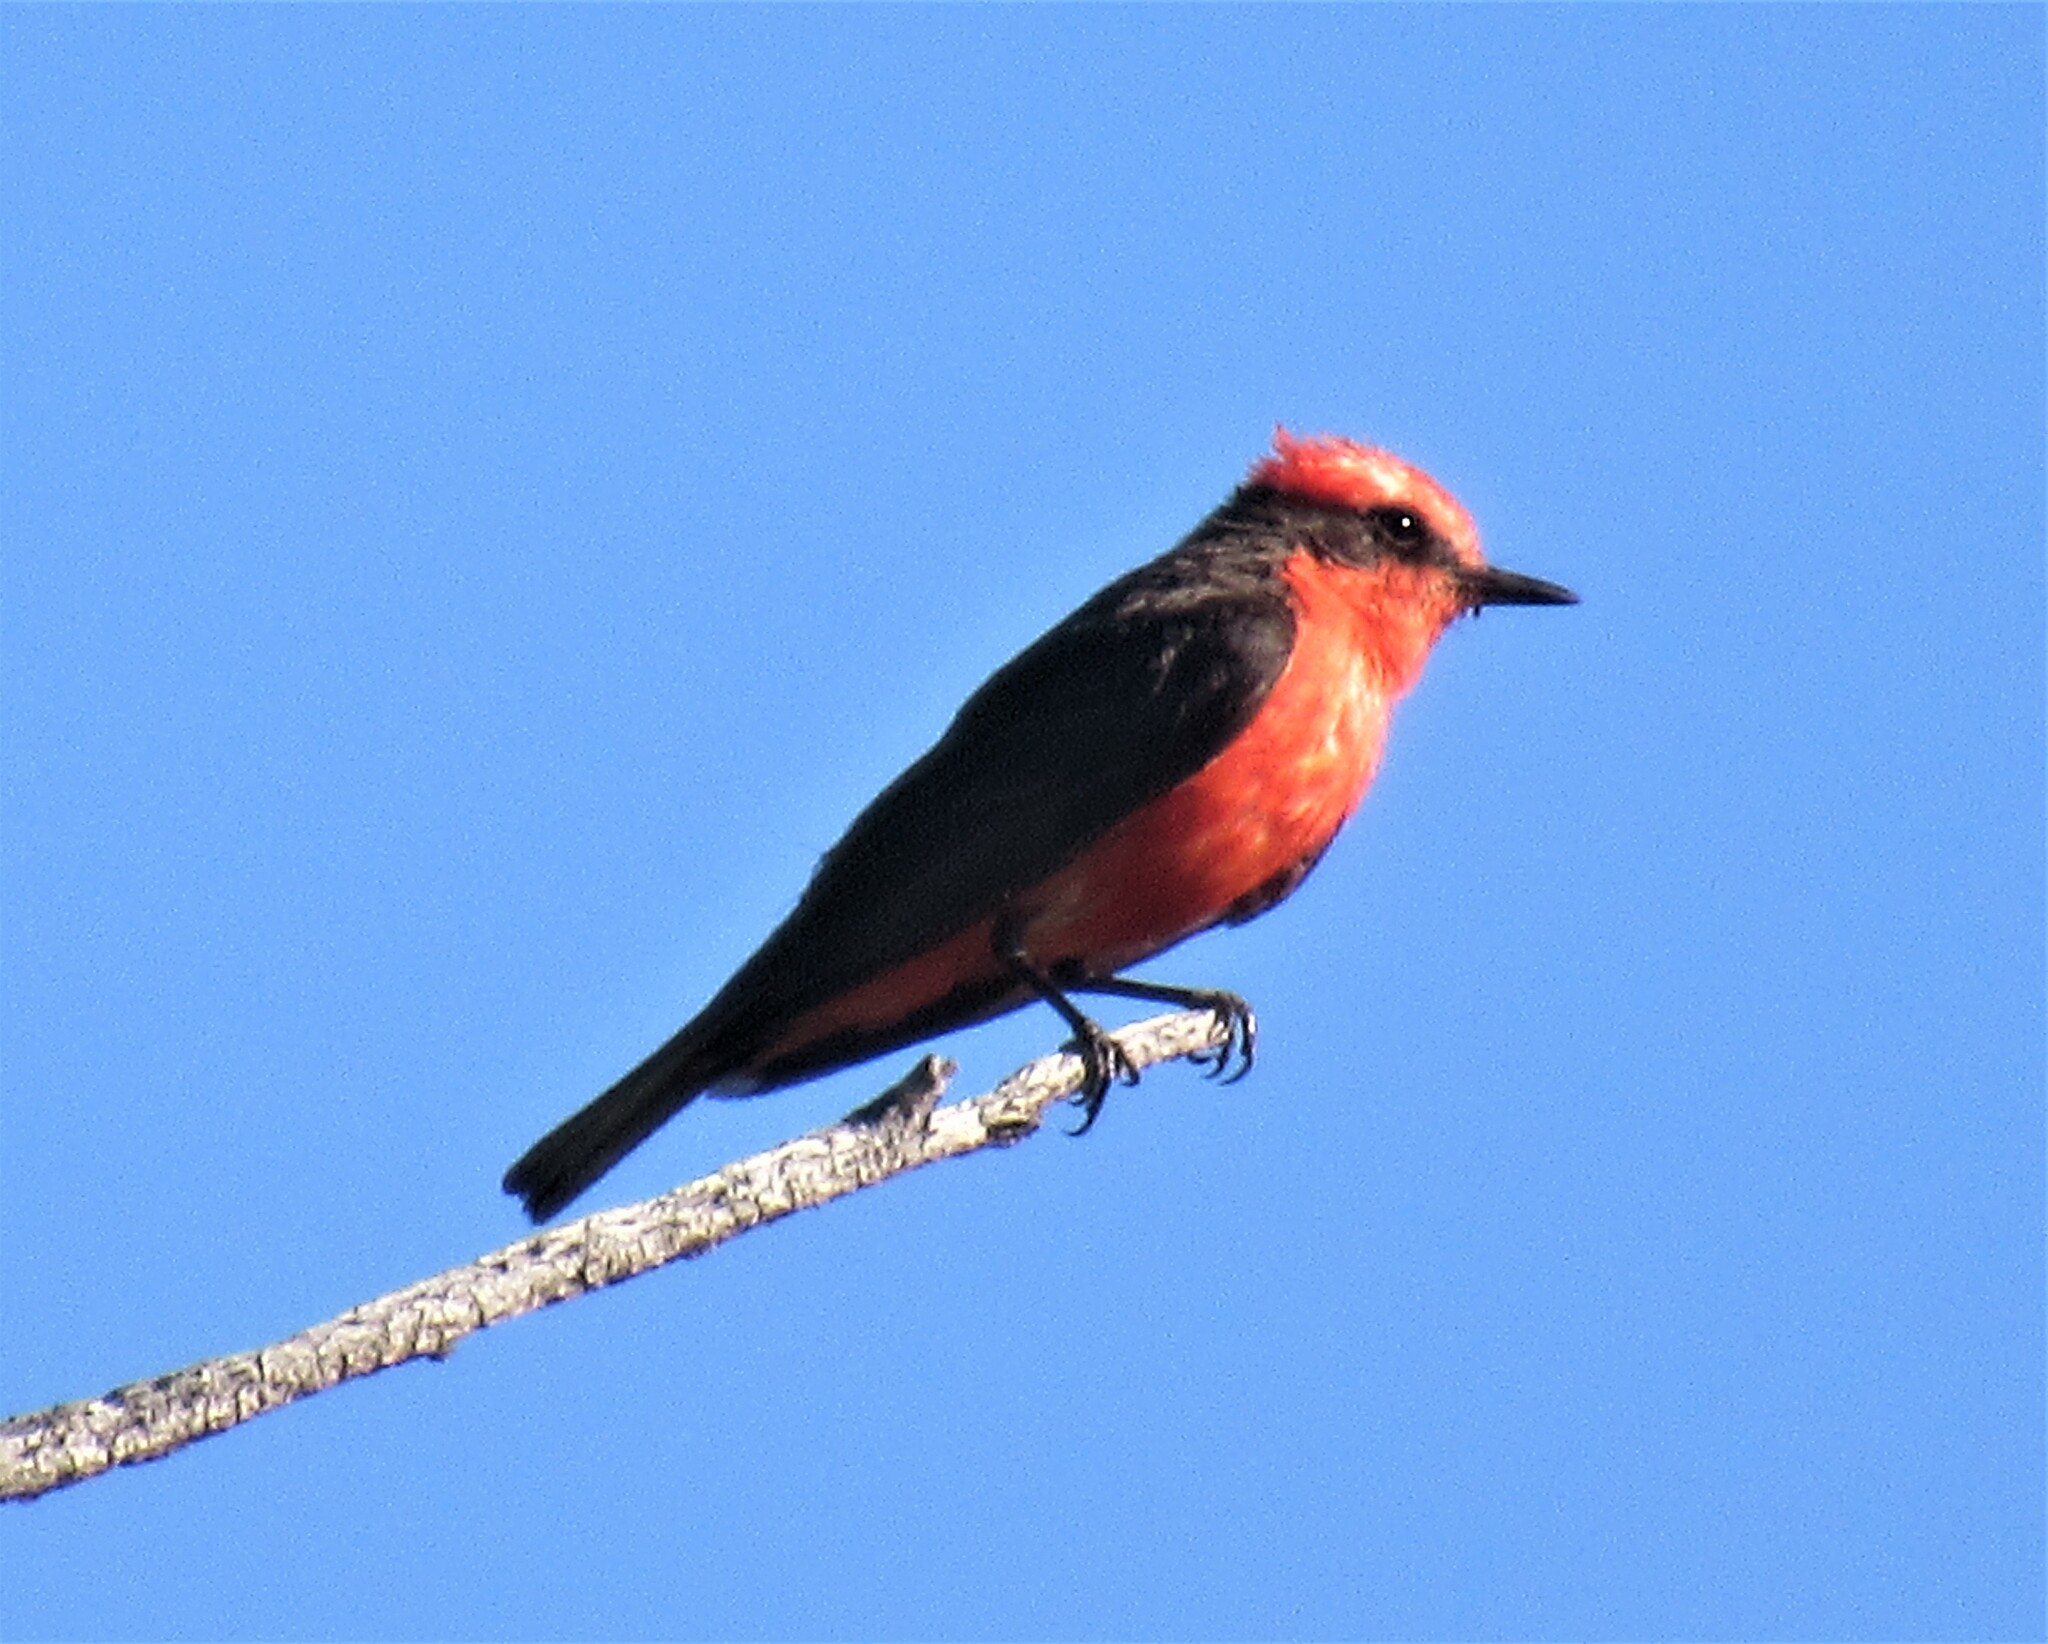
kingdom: Animalia
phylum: Chordata
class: Aves
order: Passeriformes
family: Tyrannidae
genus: Pyrocephalus
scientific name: Pyrocephalus rubinus
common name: Vermilion flycatcher
